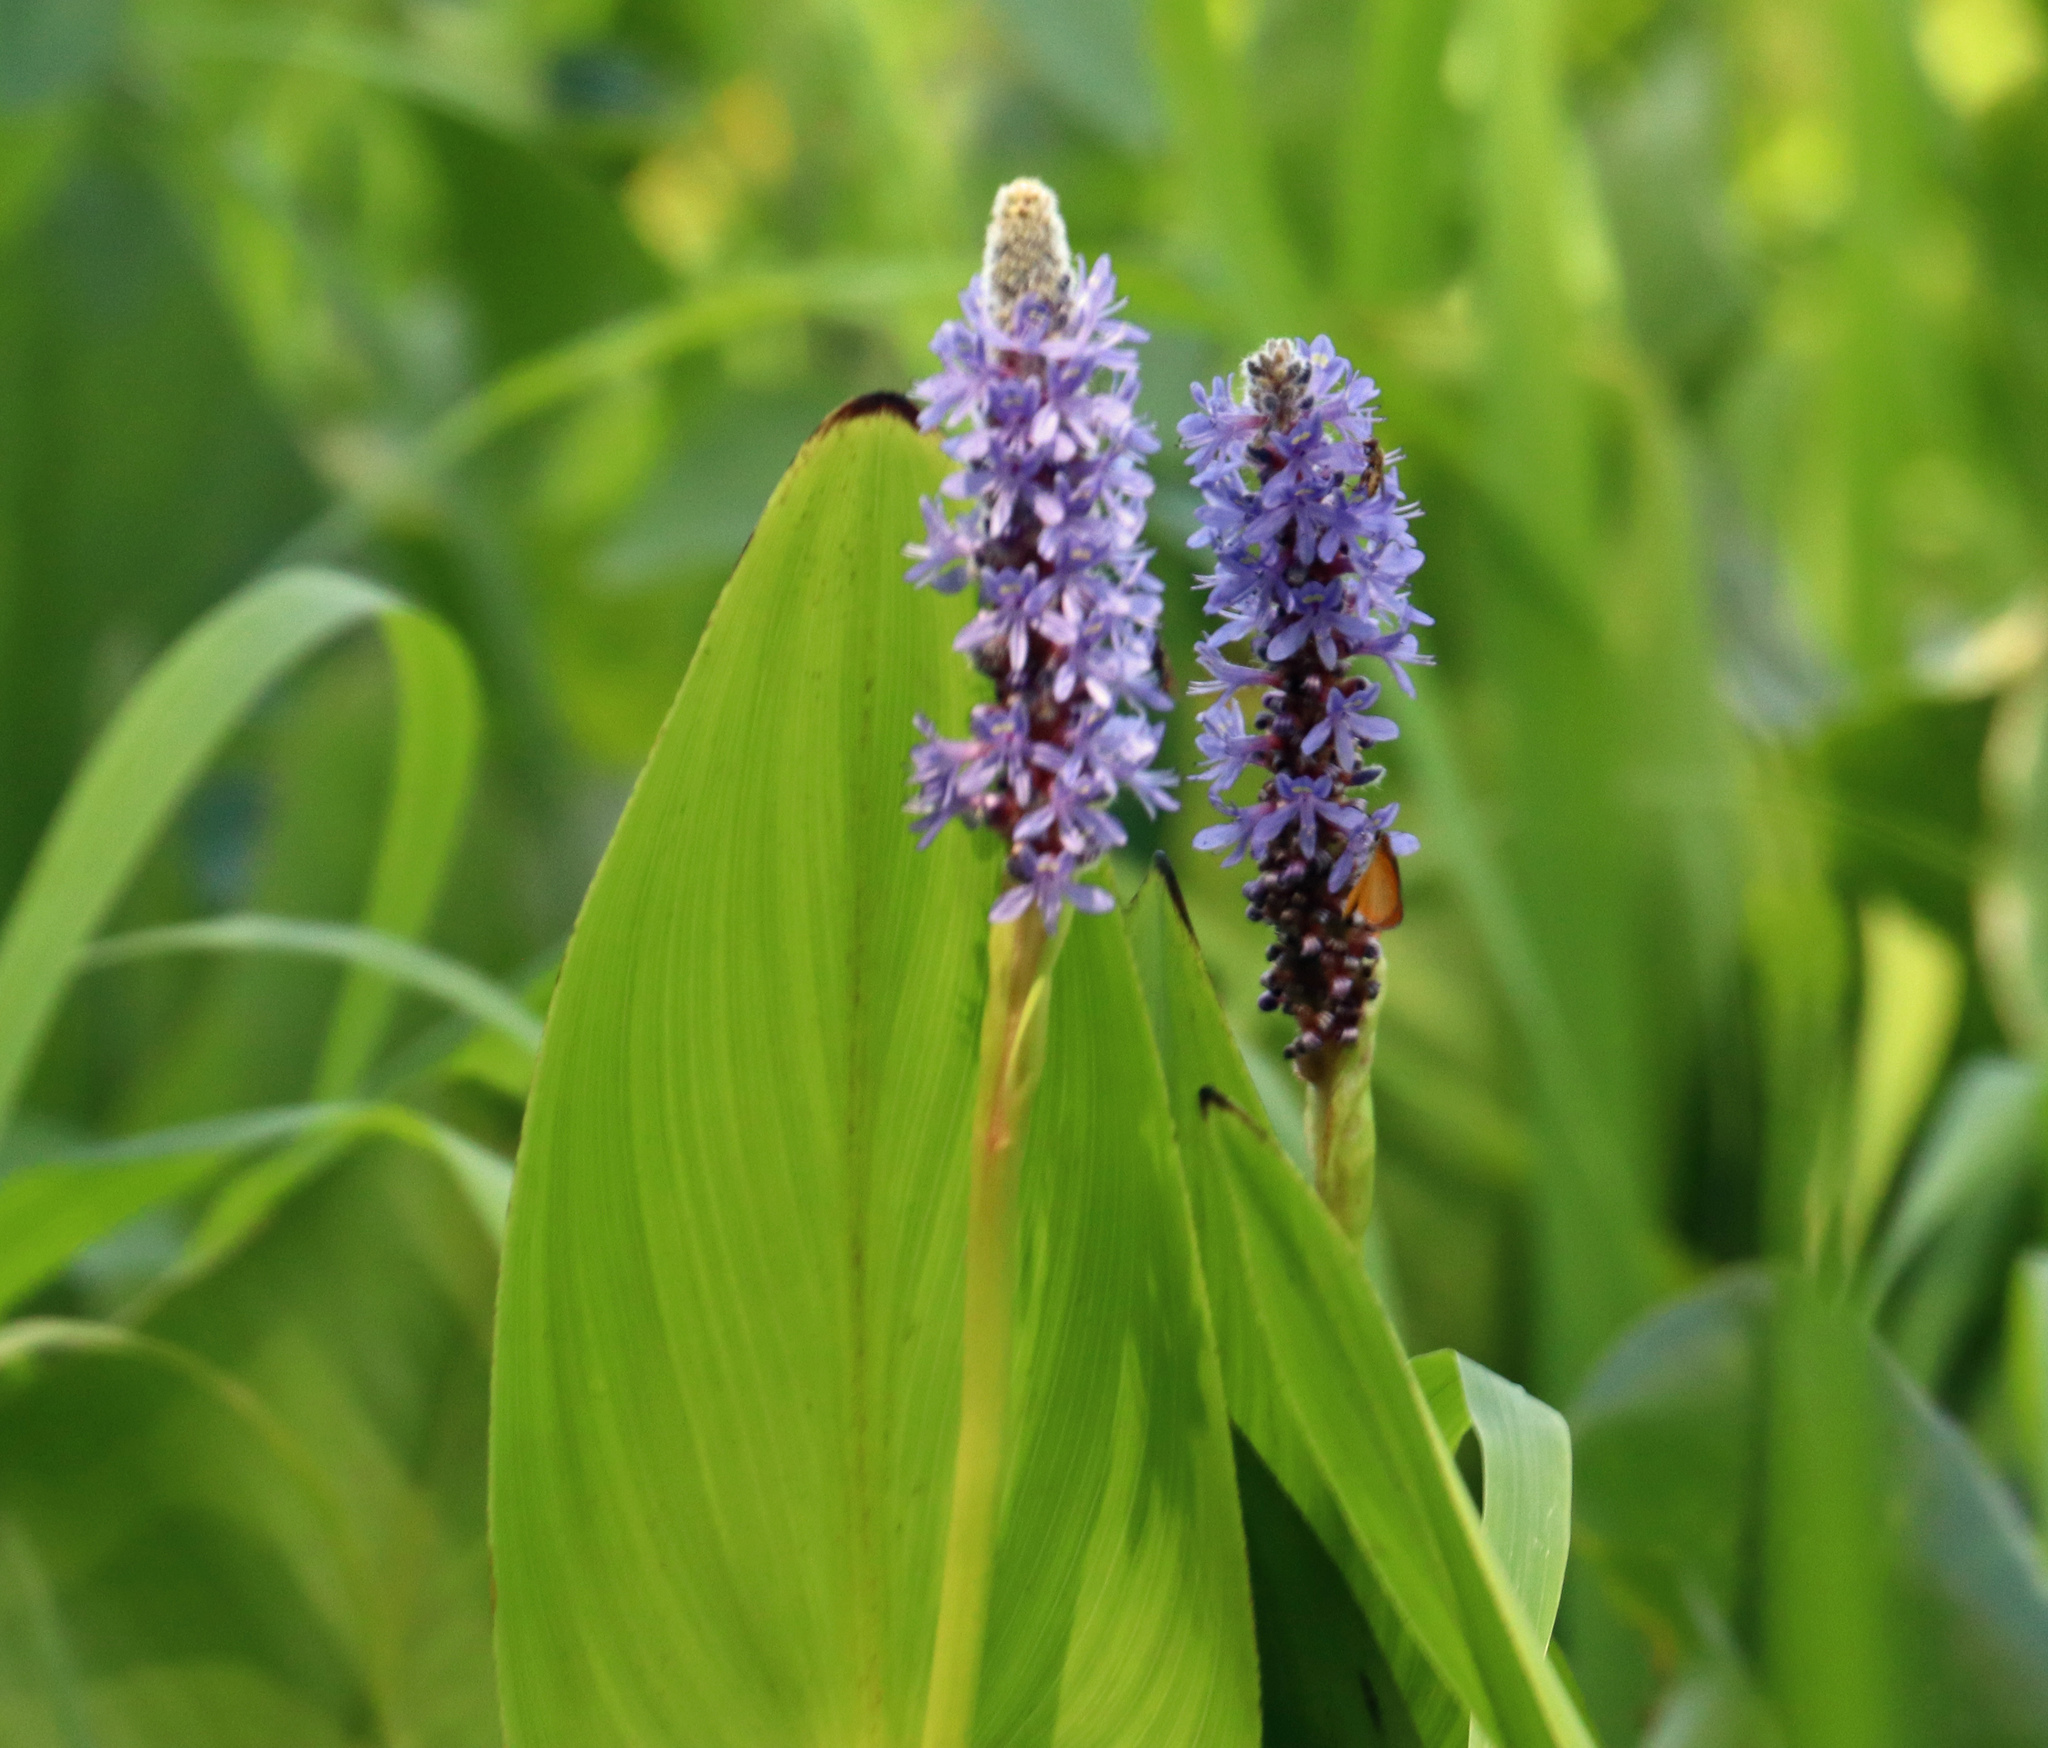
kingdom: Plantae
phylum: Tracheophyta
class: Liliopsida
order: Commelinales
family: Pontederiaceae
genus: Pontederia
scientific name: Pontederia cordata
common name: Pickerelweed
